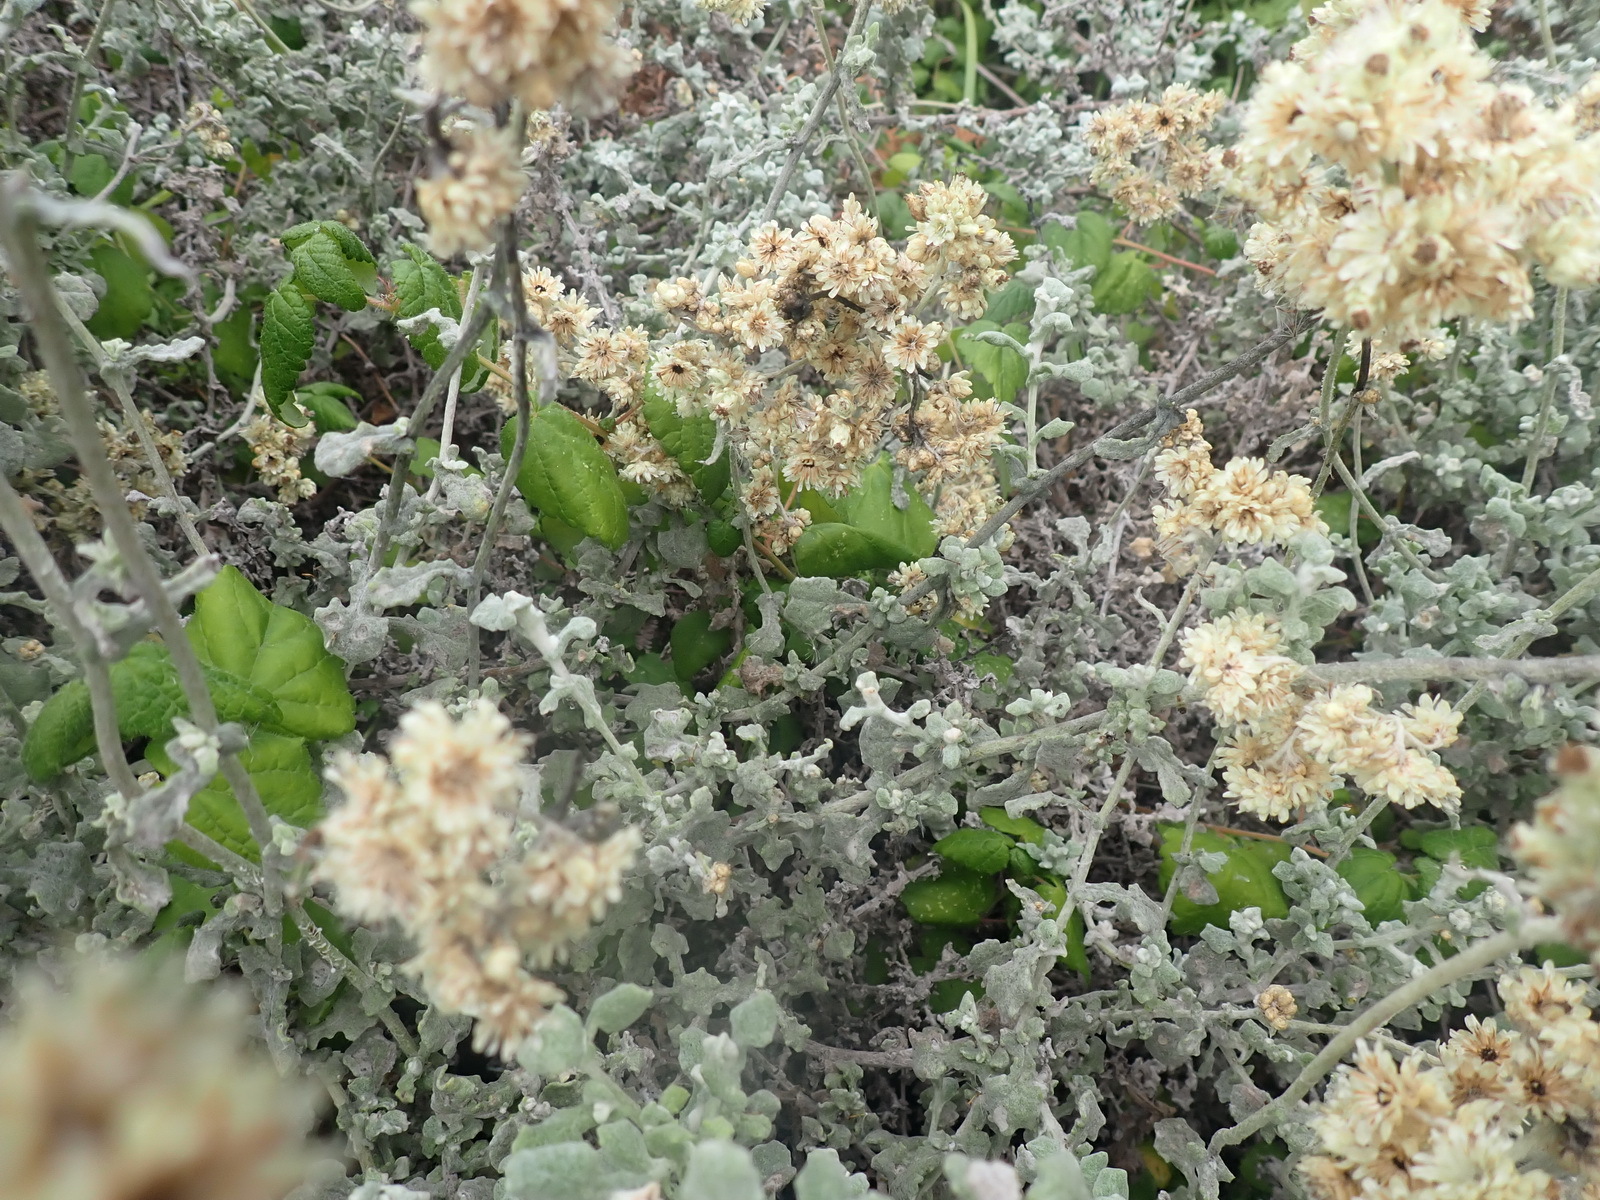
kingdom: Plantae
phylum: Tracheophyta
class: Magnoliopsida
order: Asterales
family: Asteraceae
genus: Helichrysum
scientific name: Helichrysum patulum
